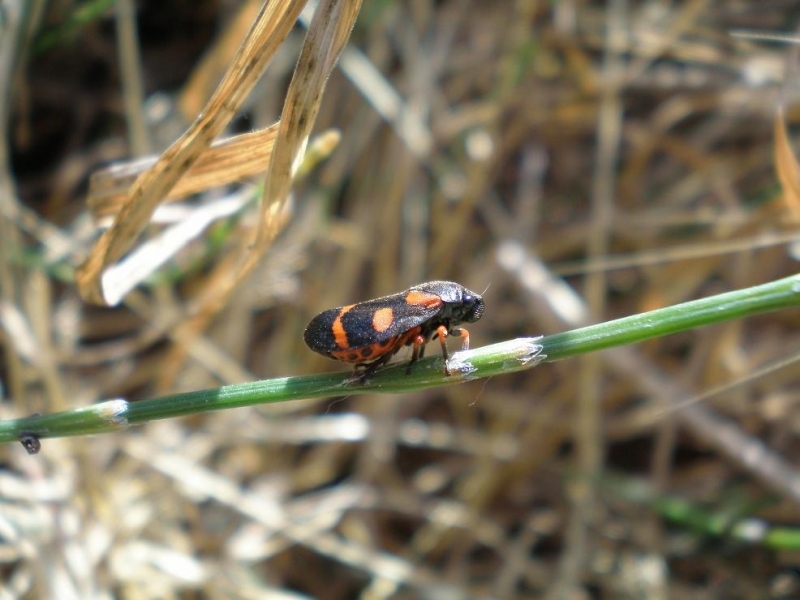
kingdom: Animalia
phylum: Arthropoda
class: Insecta
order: Hemiptera
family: Cercopidae
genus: Cercopis
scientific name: Cercopis intermedia
